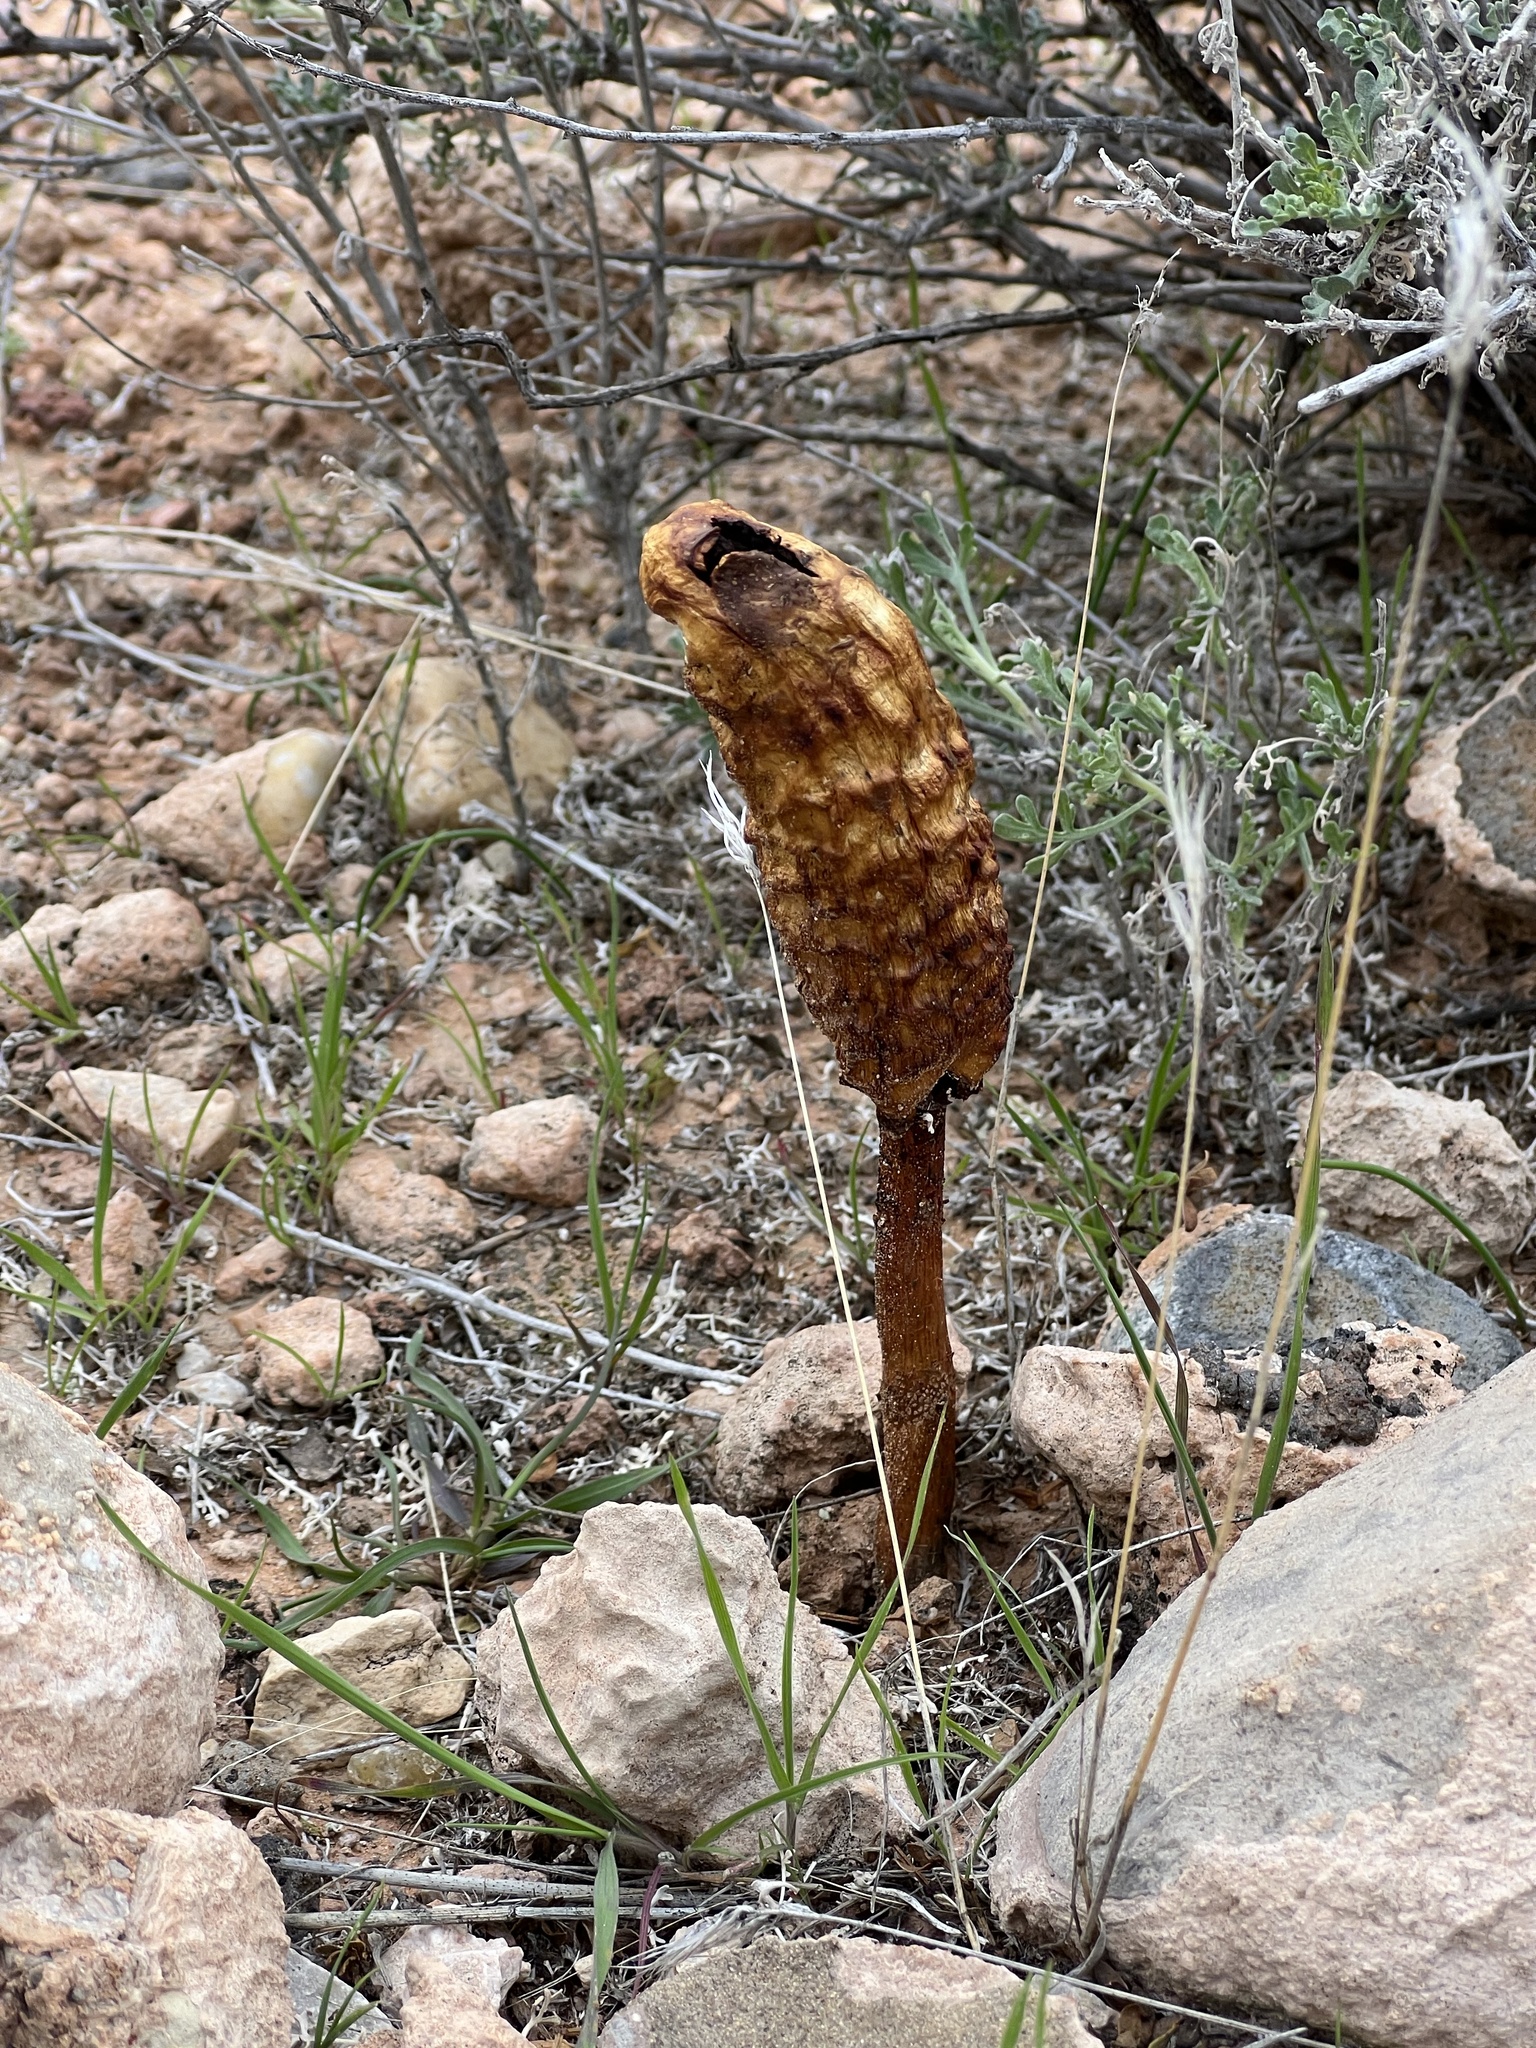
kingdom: Fungi
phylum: Basidiomycota
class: Agaricomycetes
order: Agaricales
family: Agaricaceae
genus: Podaxis
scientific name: Podaxis pistillaris
